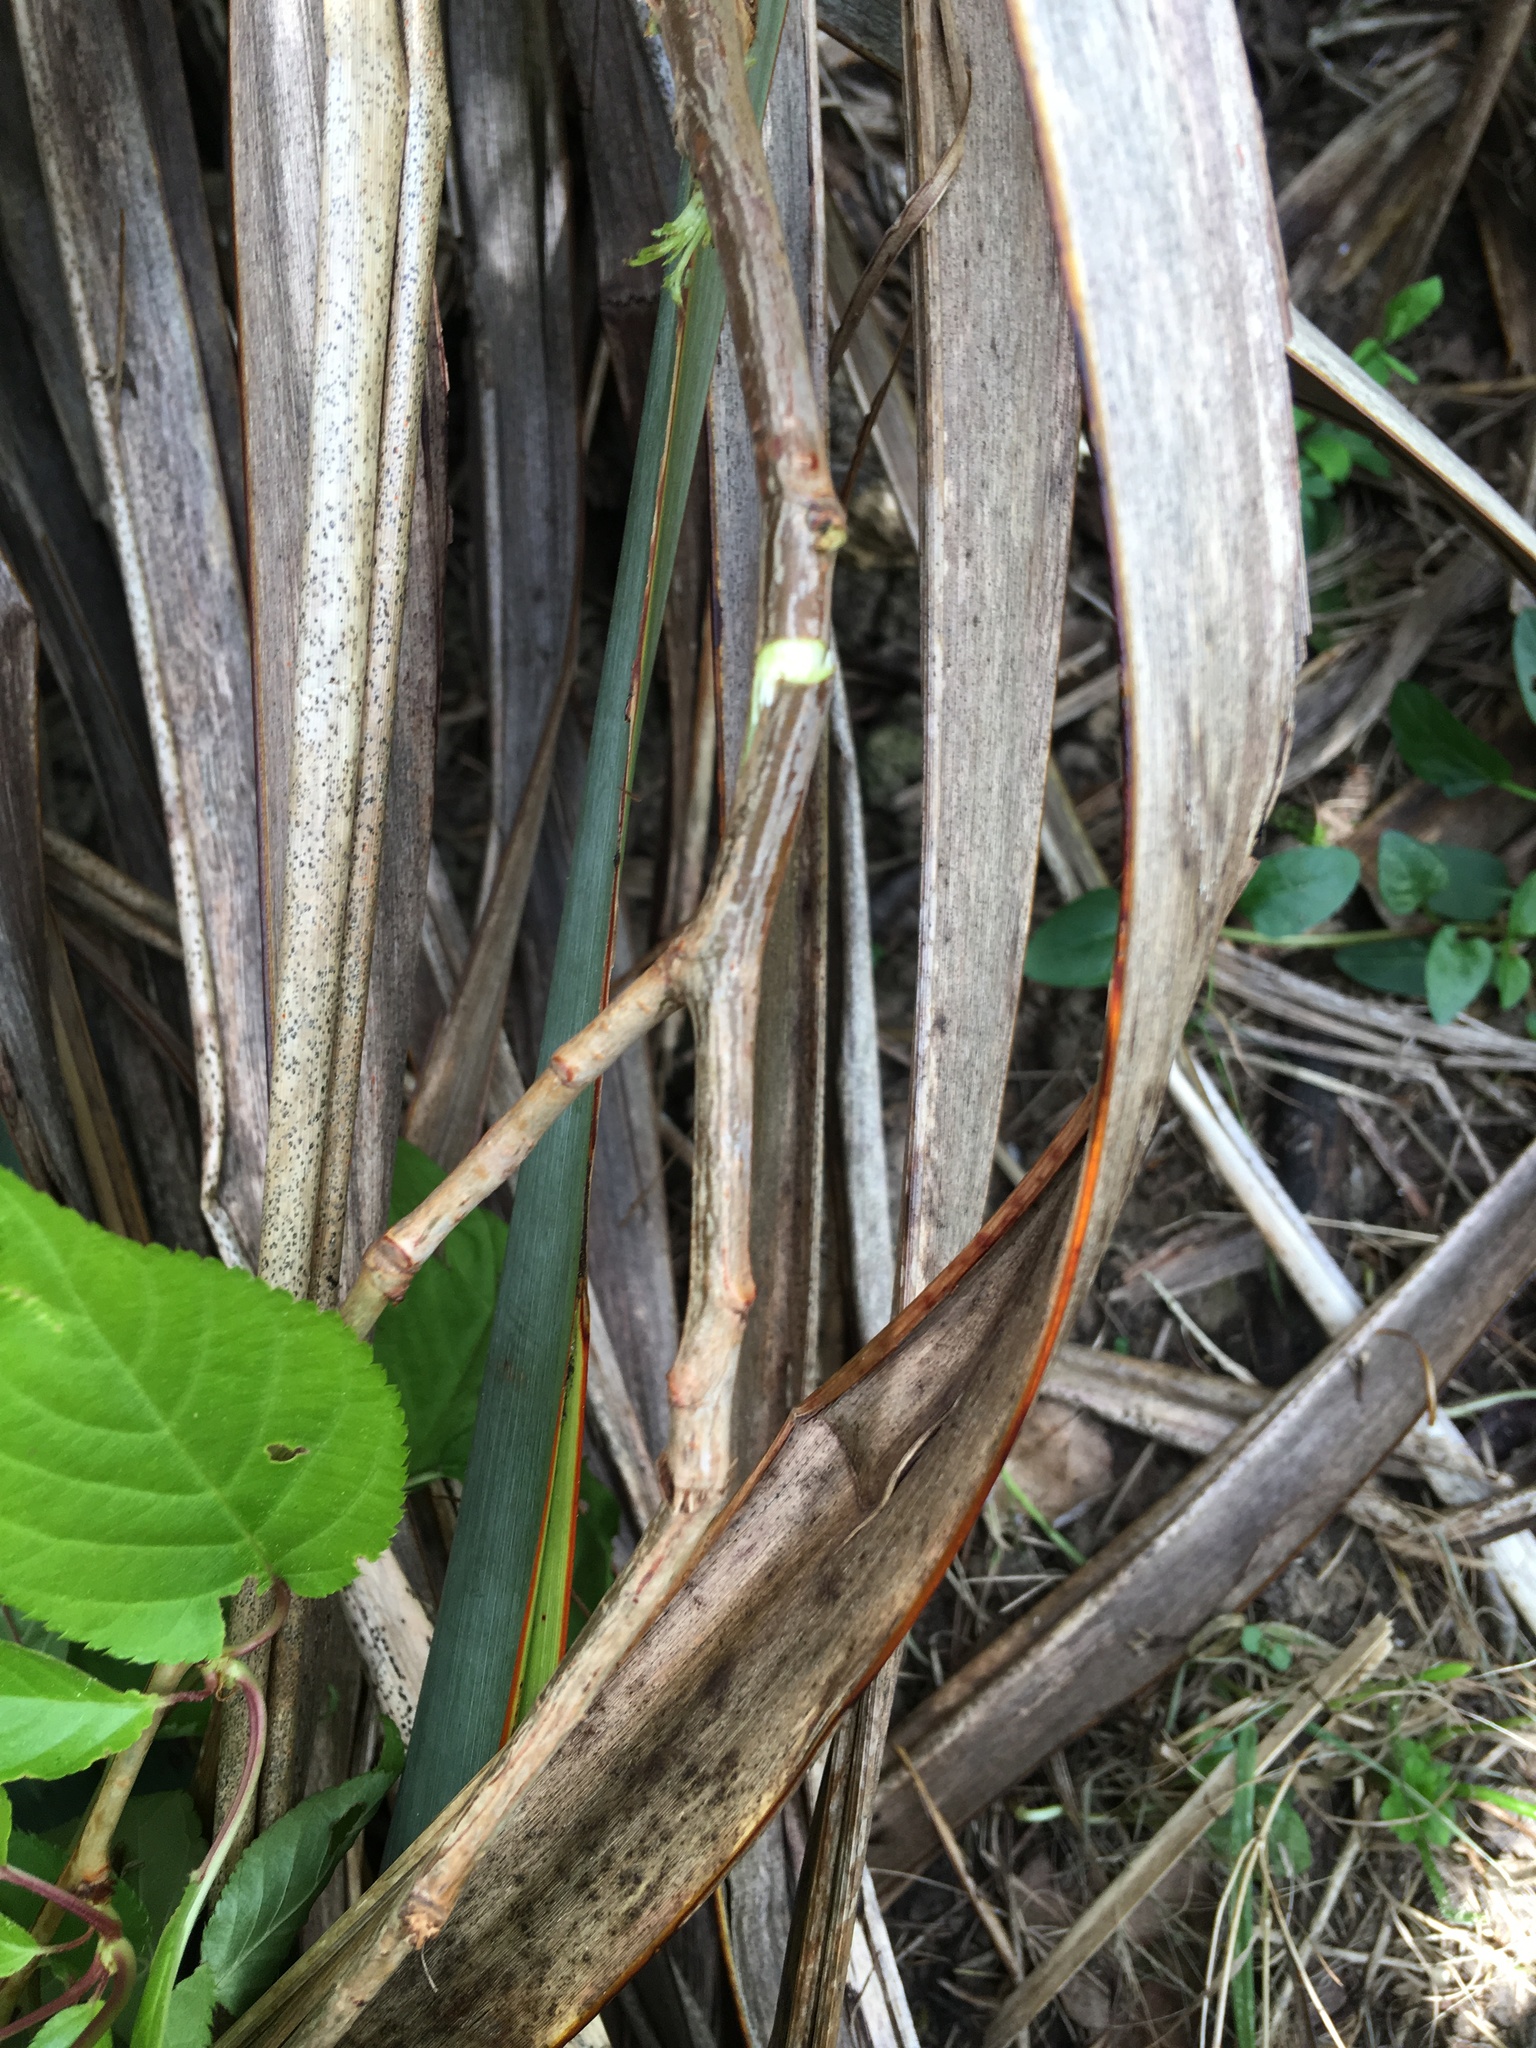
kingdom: Plantae
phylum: Tracheophyta
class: Magnoliopsida
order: Rosales
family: Rosaceae
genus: Prunus
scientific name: Prunus serrulata
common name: Japanese cherry
